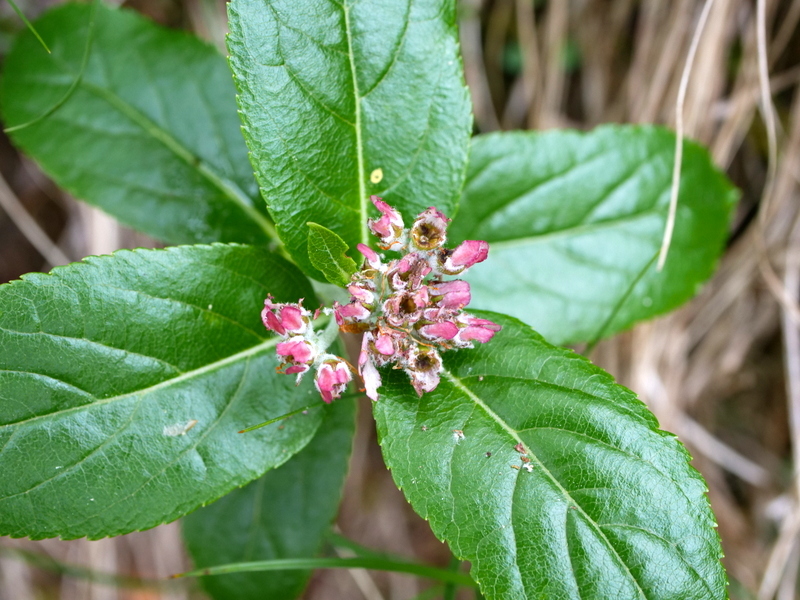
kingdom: Plantae
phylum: Tracheophyta
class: Magnoliopsida
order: Rosales
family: Rosaceae
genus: Chamaemespilus
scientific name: Chamaemespilus alpina
